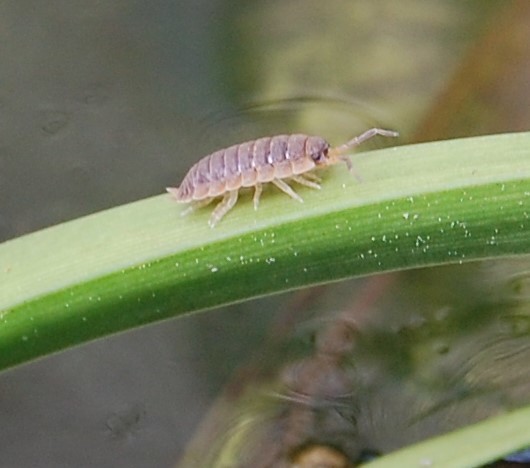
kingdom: Animalia
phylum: Arthropoda
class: Malacostraca
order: Isopoda
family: Porcellionidae
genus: Porcellio
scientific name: Porcellio scaber
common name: Common rough woodlouse
